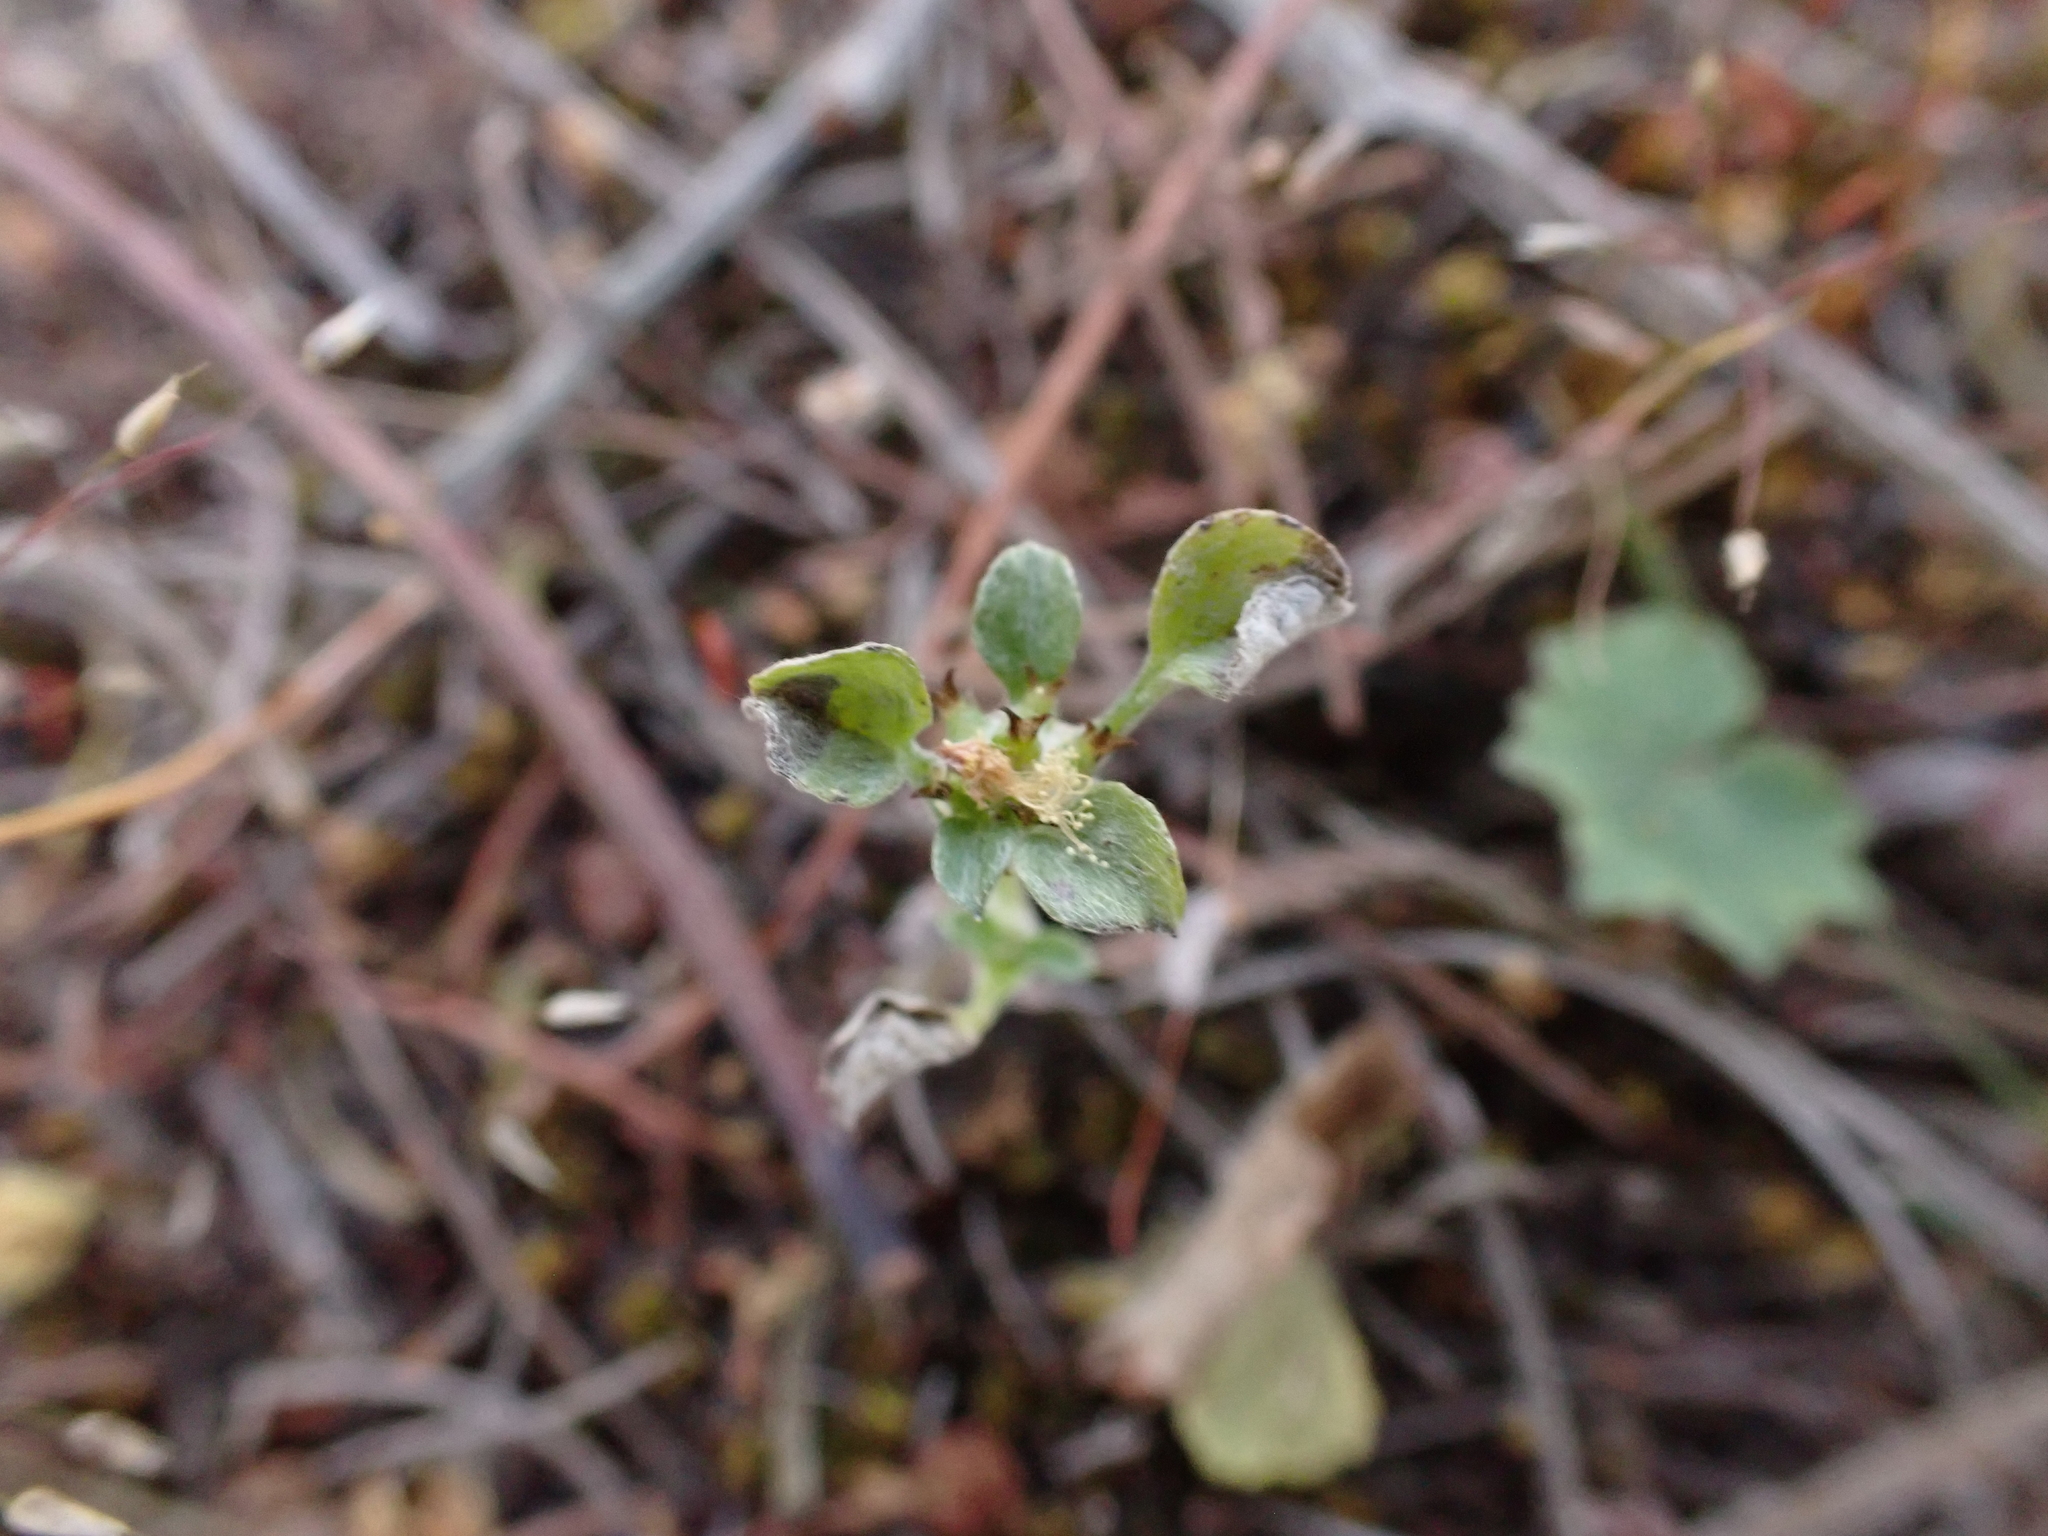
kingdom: Plantae
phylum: Tracheophyta
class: Magnoliopsida
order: Asterales
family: Asteraceae
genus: Stuartina
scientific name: Stuartina muelleri
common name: Spoon-leaved cudweed
